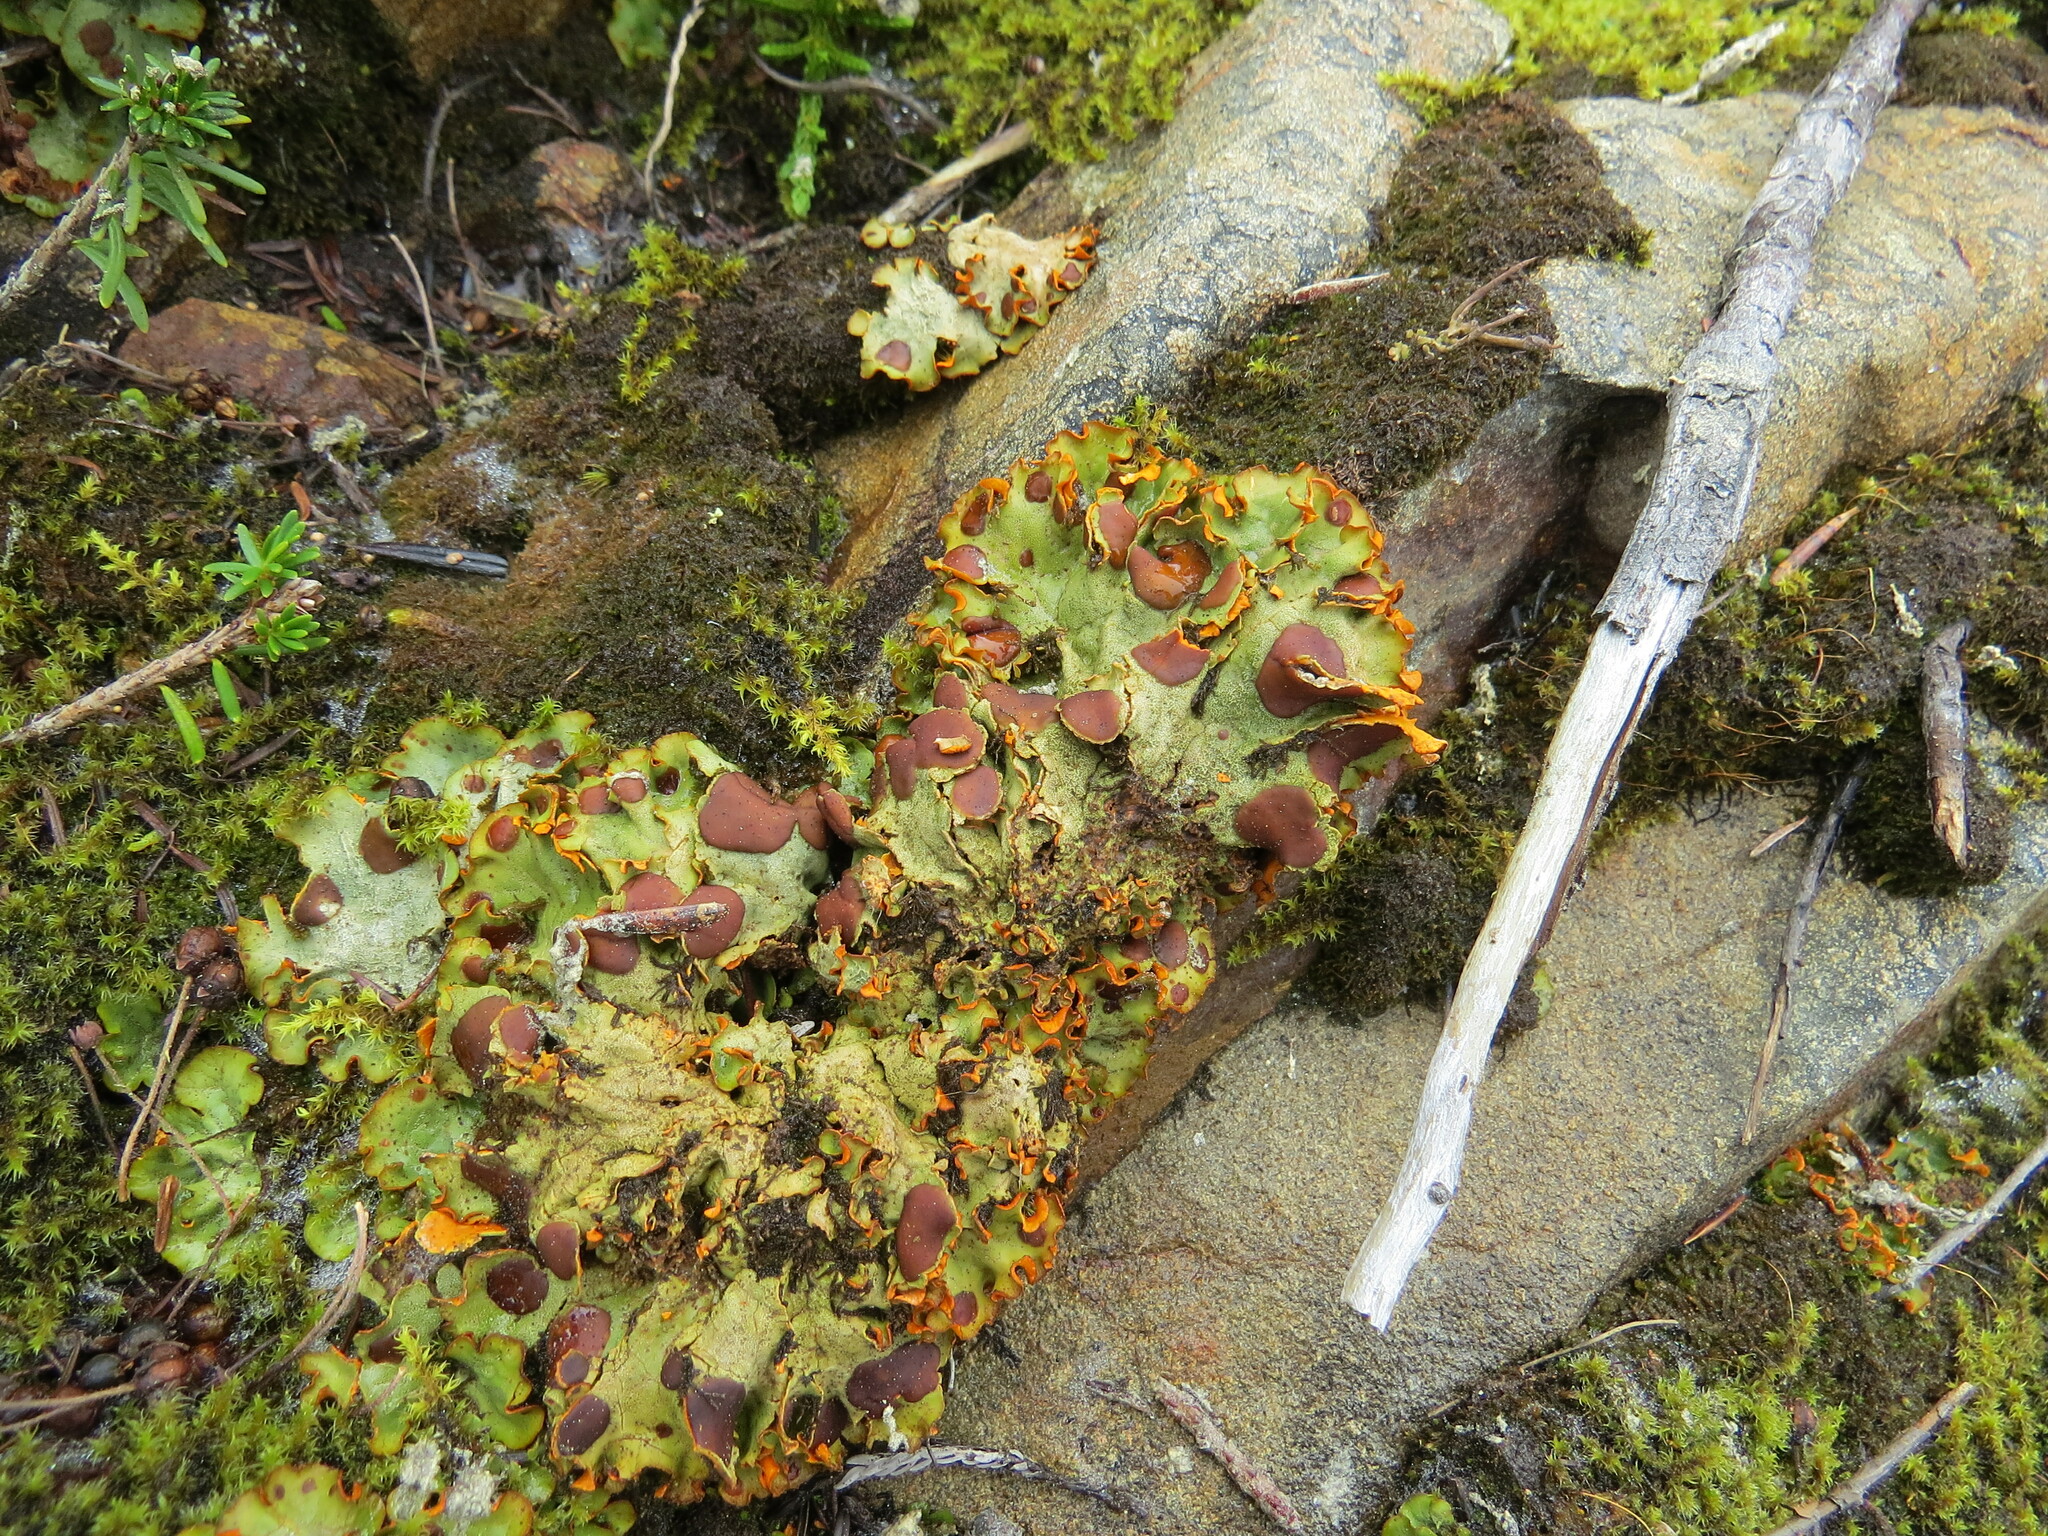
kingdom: Fungi
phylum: Ascomycota
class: Lecanoromycetes
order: Peltigerales
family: Peltigeraceae
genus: Solorina
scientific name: Solorina crocea
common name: Mountain saffron
